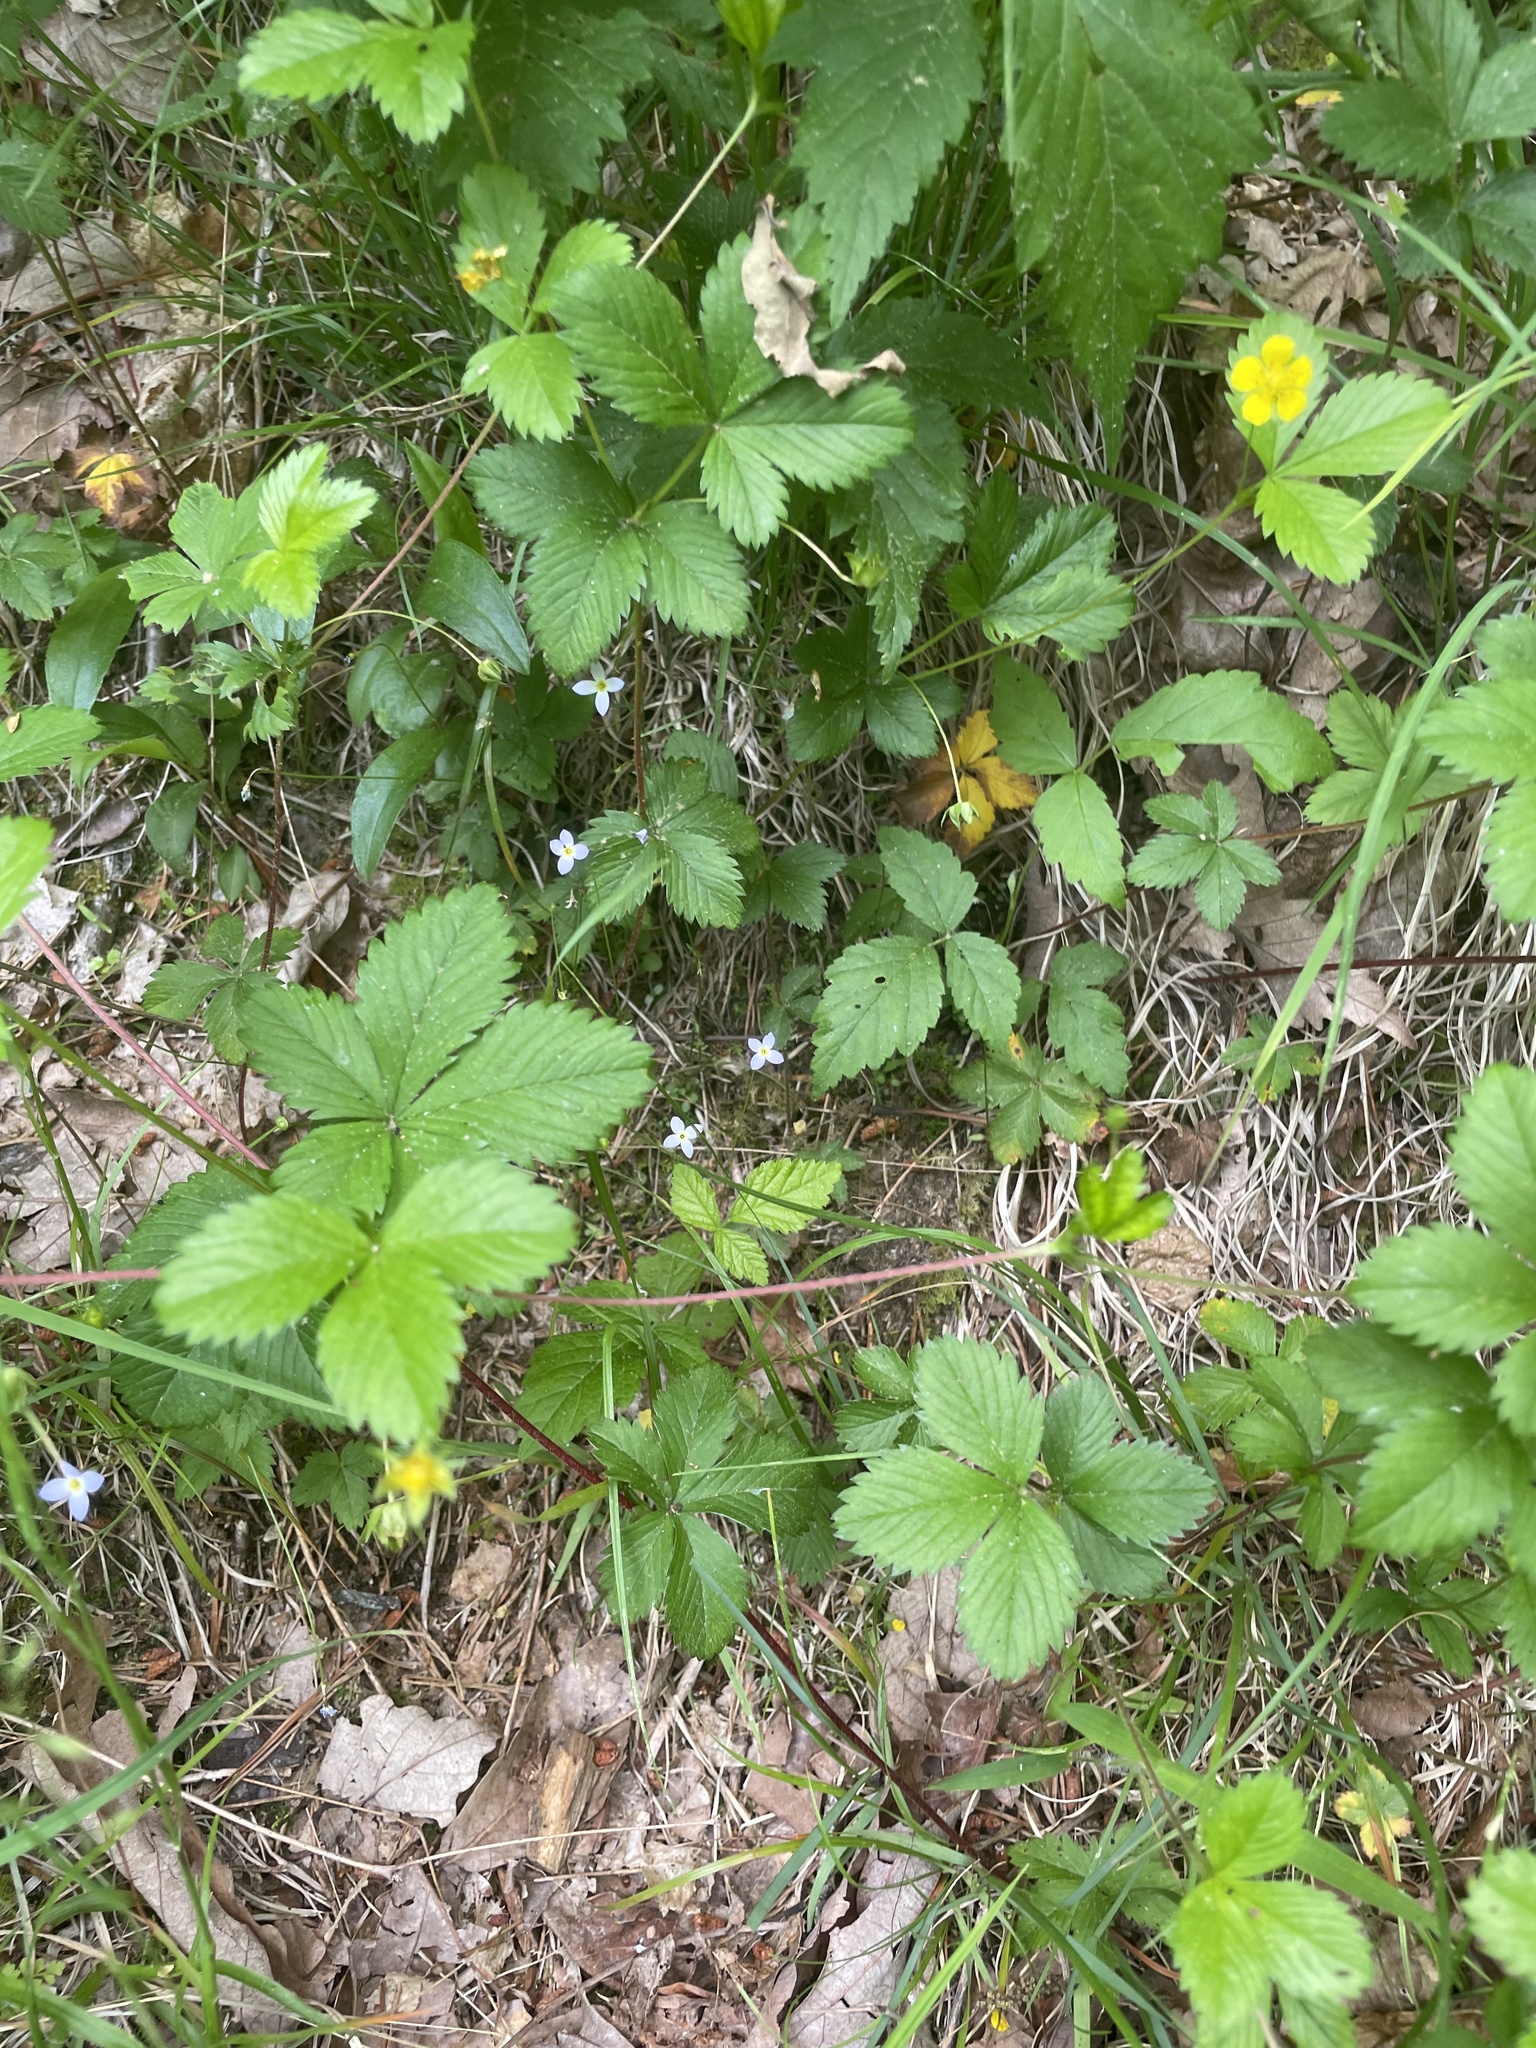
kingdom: Plantae
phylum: Tracheophyta
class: Magnoliopsida
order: Gentianales
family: Rubiaceae
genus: Houstonia
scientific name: Houstonia caerulea
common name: Bluets
